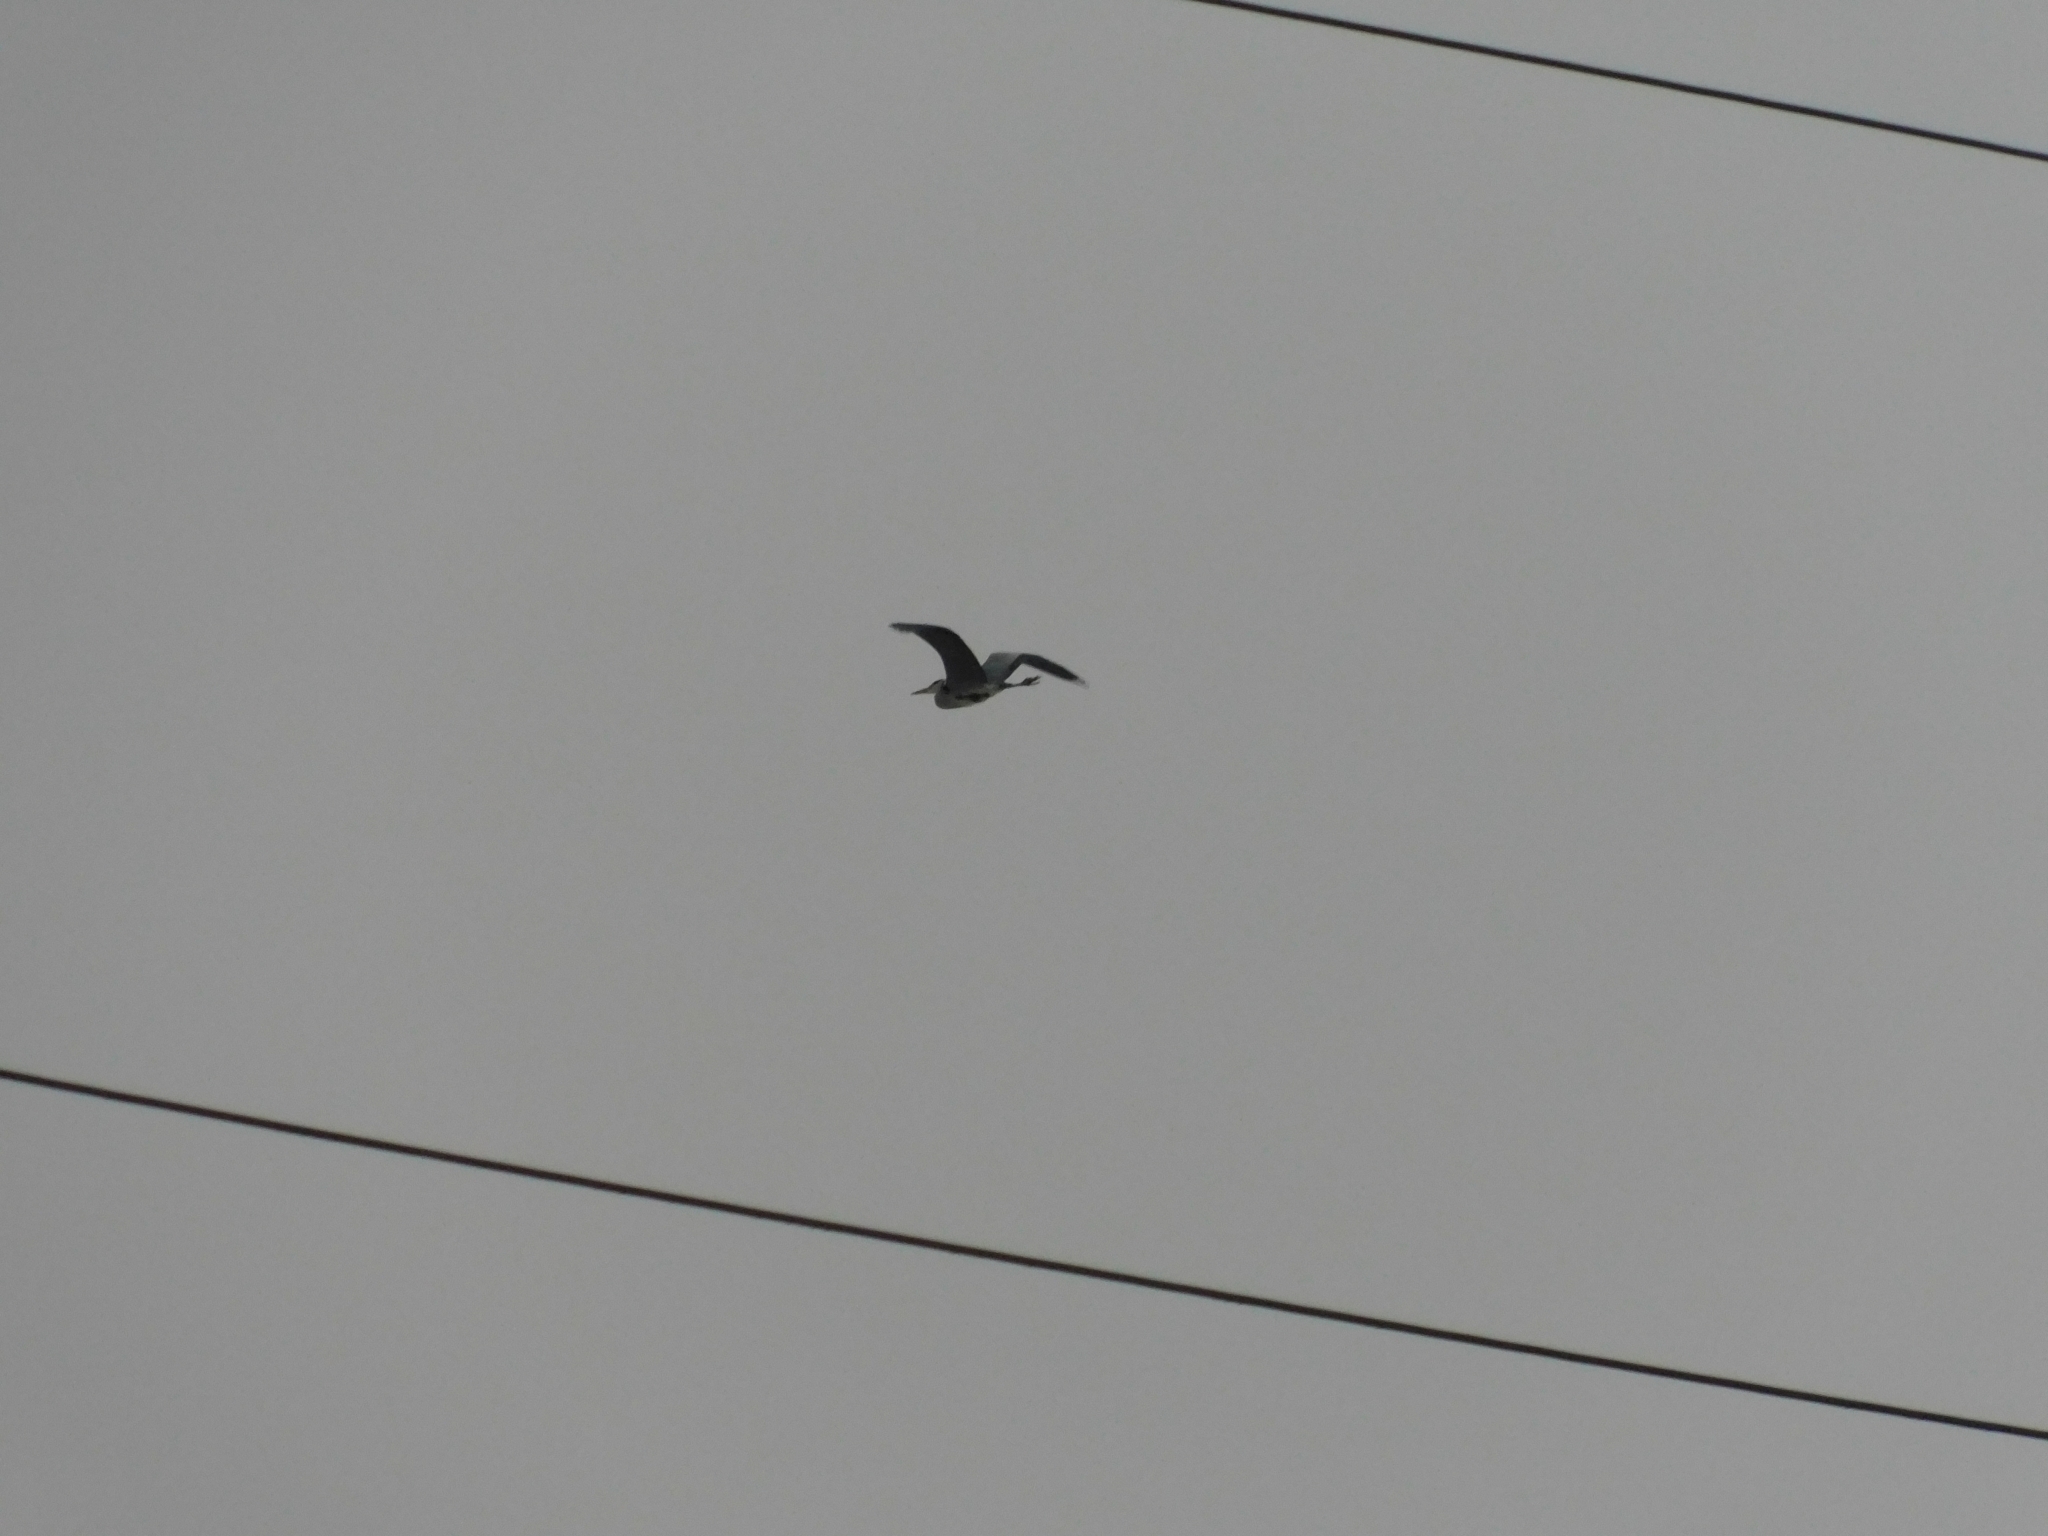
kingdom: Animalia
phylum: Chordata
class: Aves
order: Pelecaniformes
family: Ardeidae
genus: Ardea
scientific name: Ardea cinerea
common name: Grey heron
